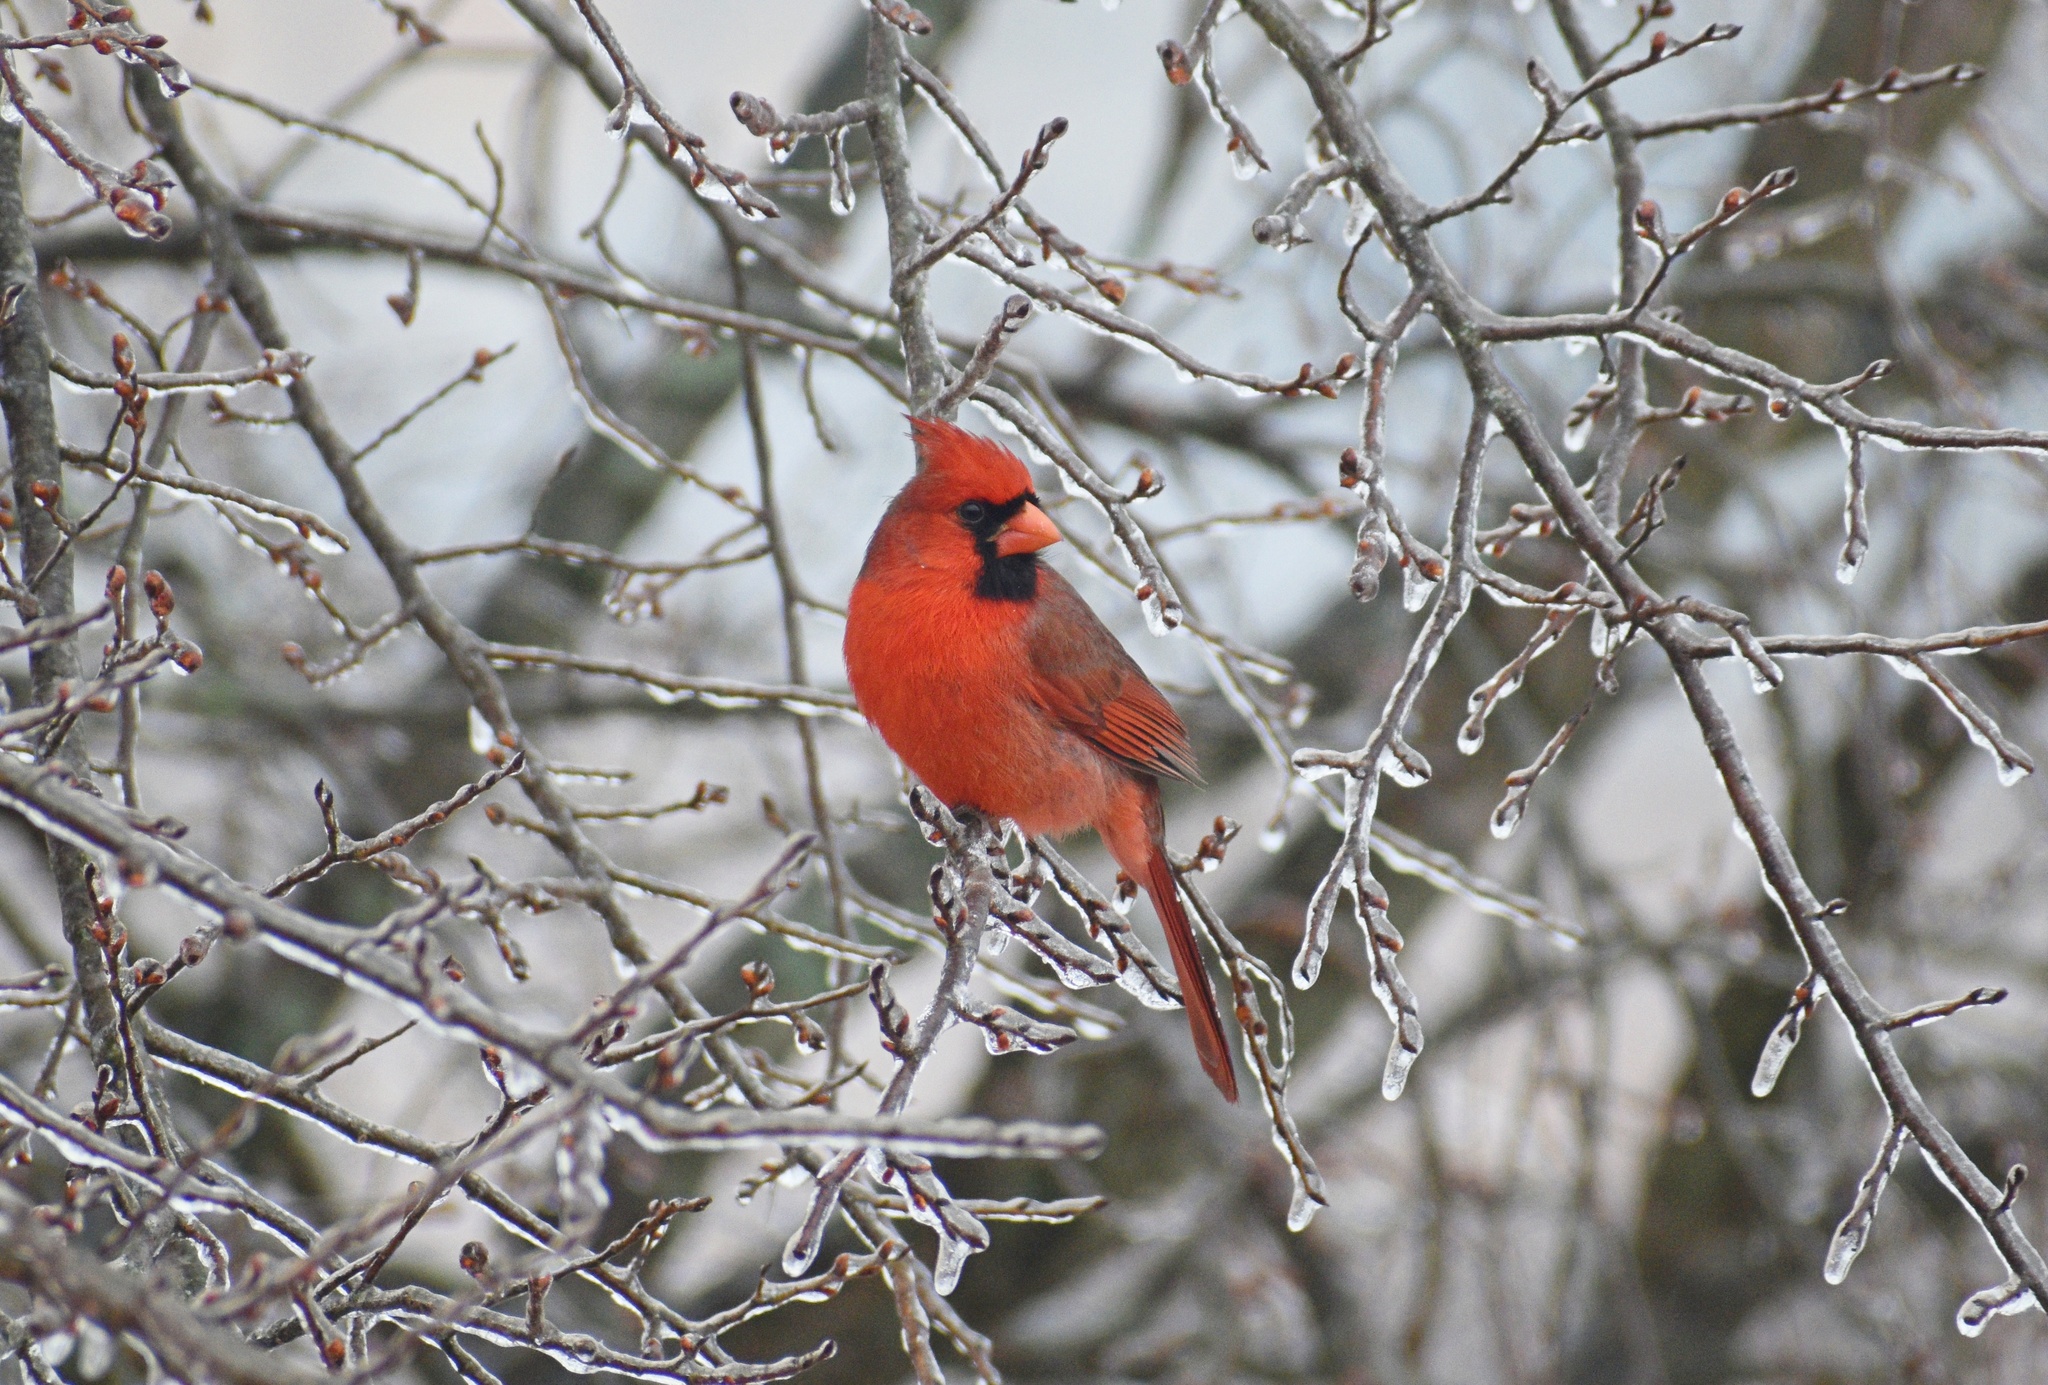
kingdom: Animalia
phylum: Chordata
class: Aves
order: Passeriformes
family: Cardinalidae
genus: Cardinalis
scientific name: Cardinalis cardinalis
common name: Northern cardinal
